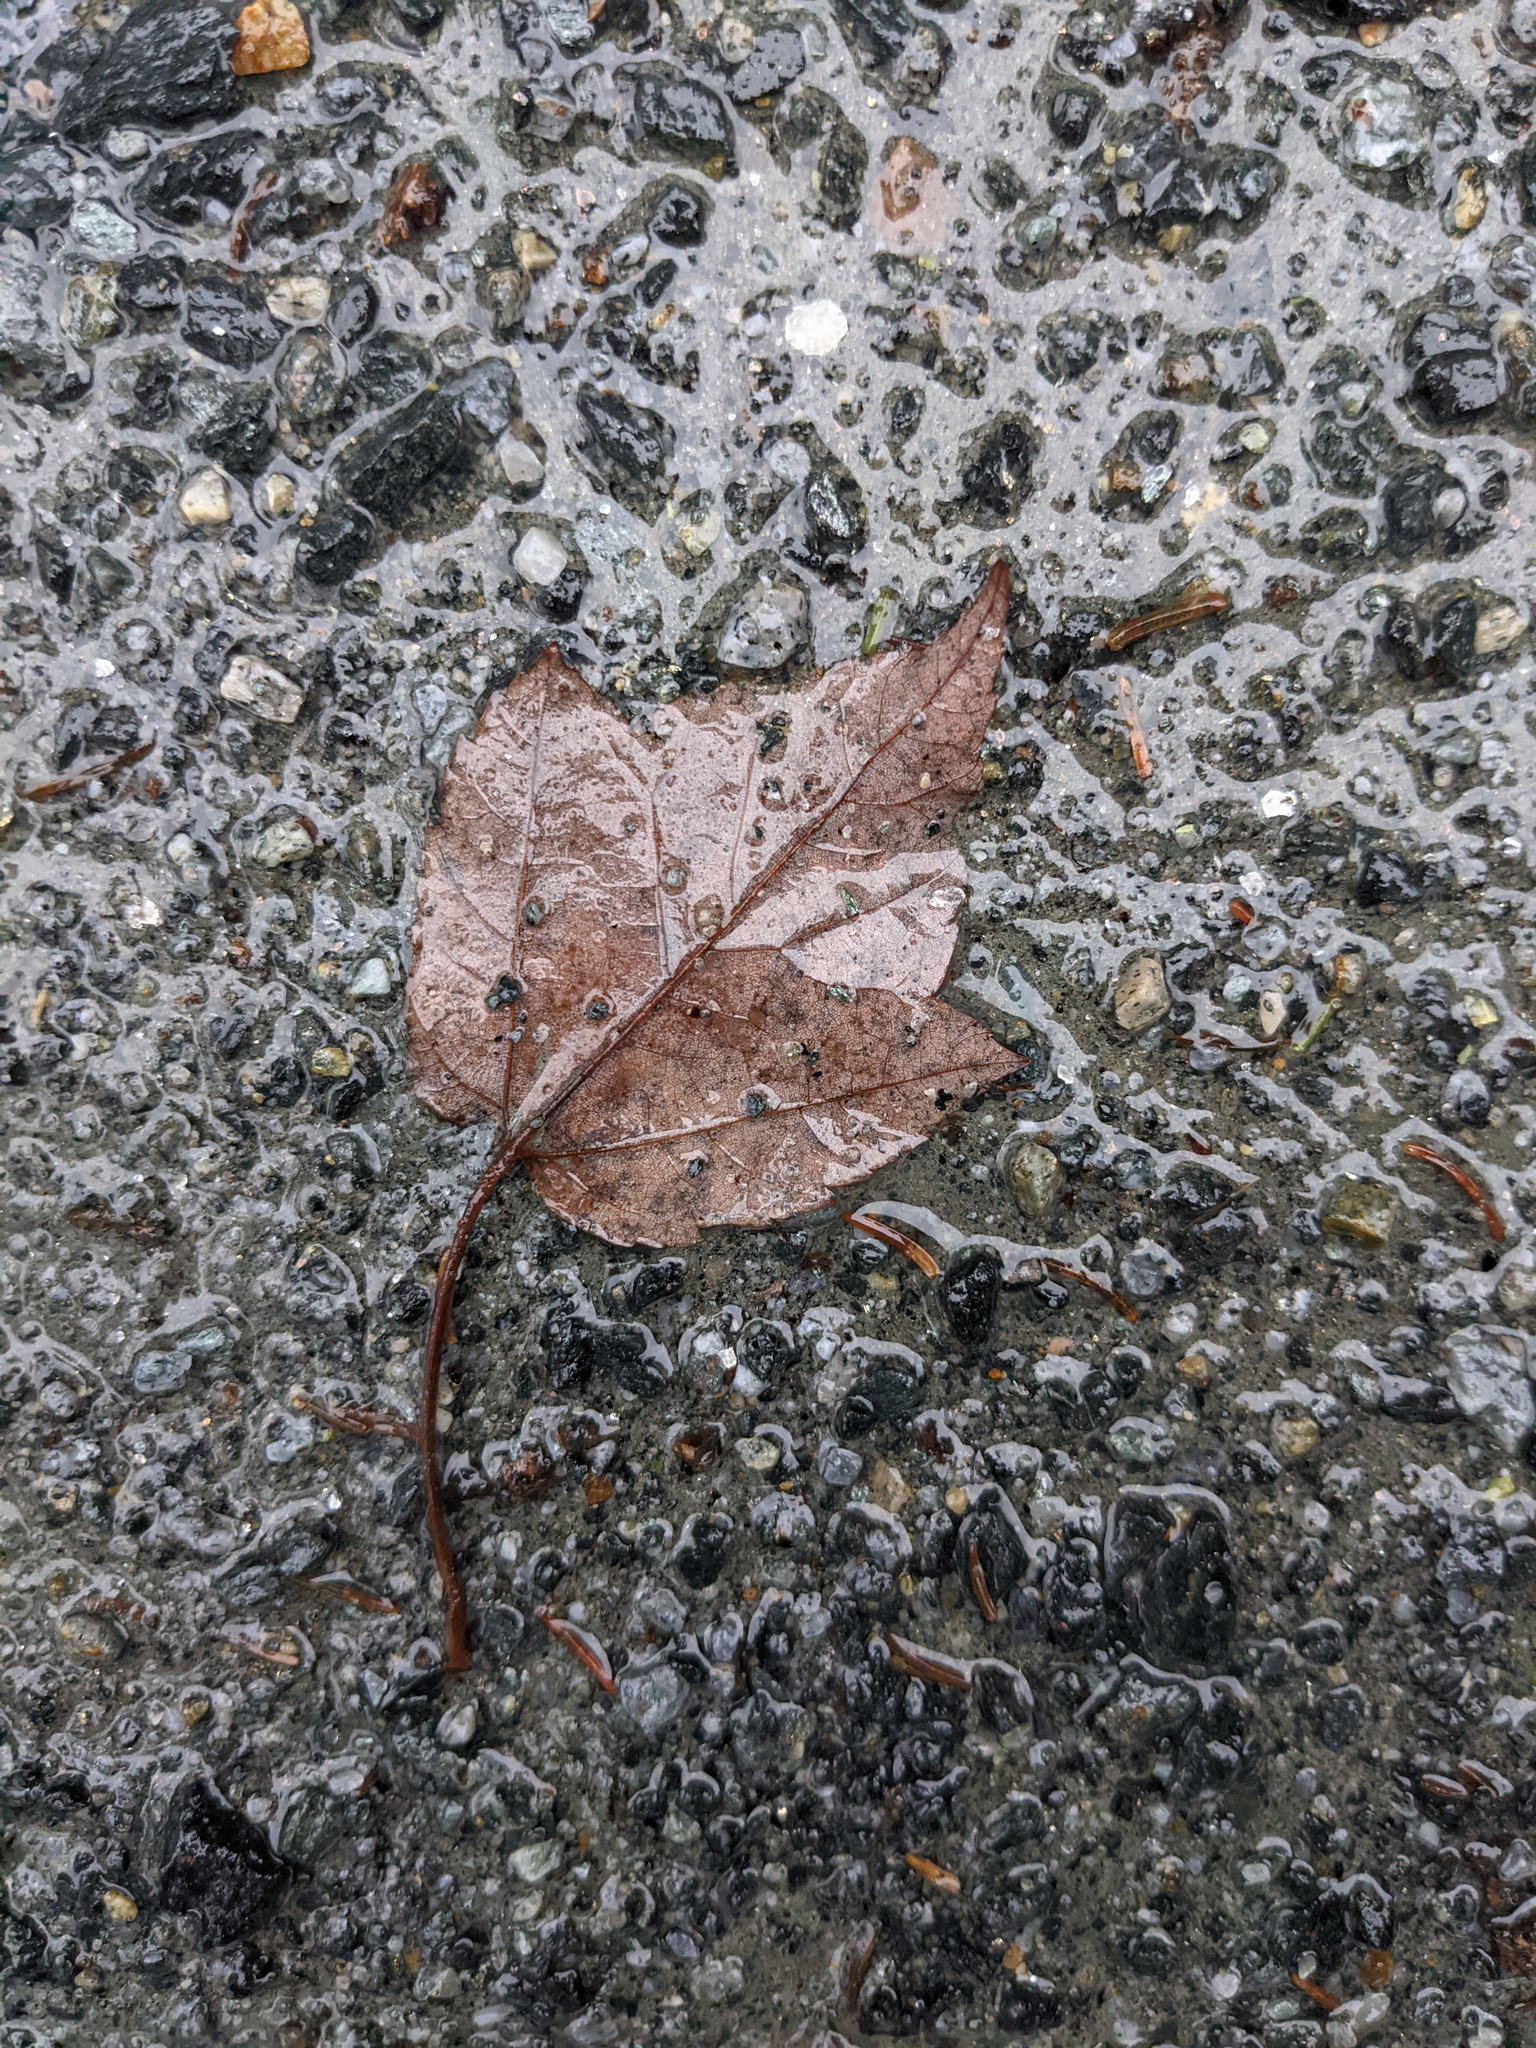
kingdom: Plantae
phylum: Tracheophyta
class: Magnoliopsida
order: Sapindales
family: Sapindaceae
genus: Acer
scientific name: Acer rubrum
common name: Red maple
